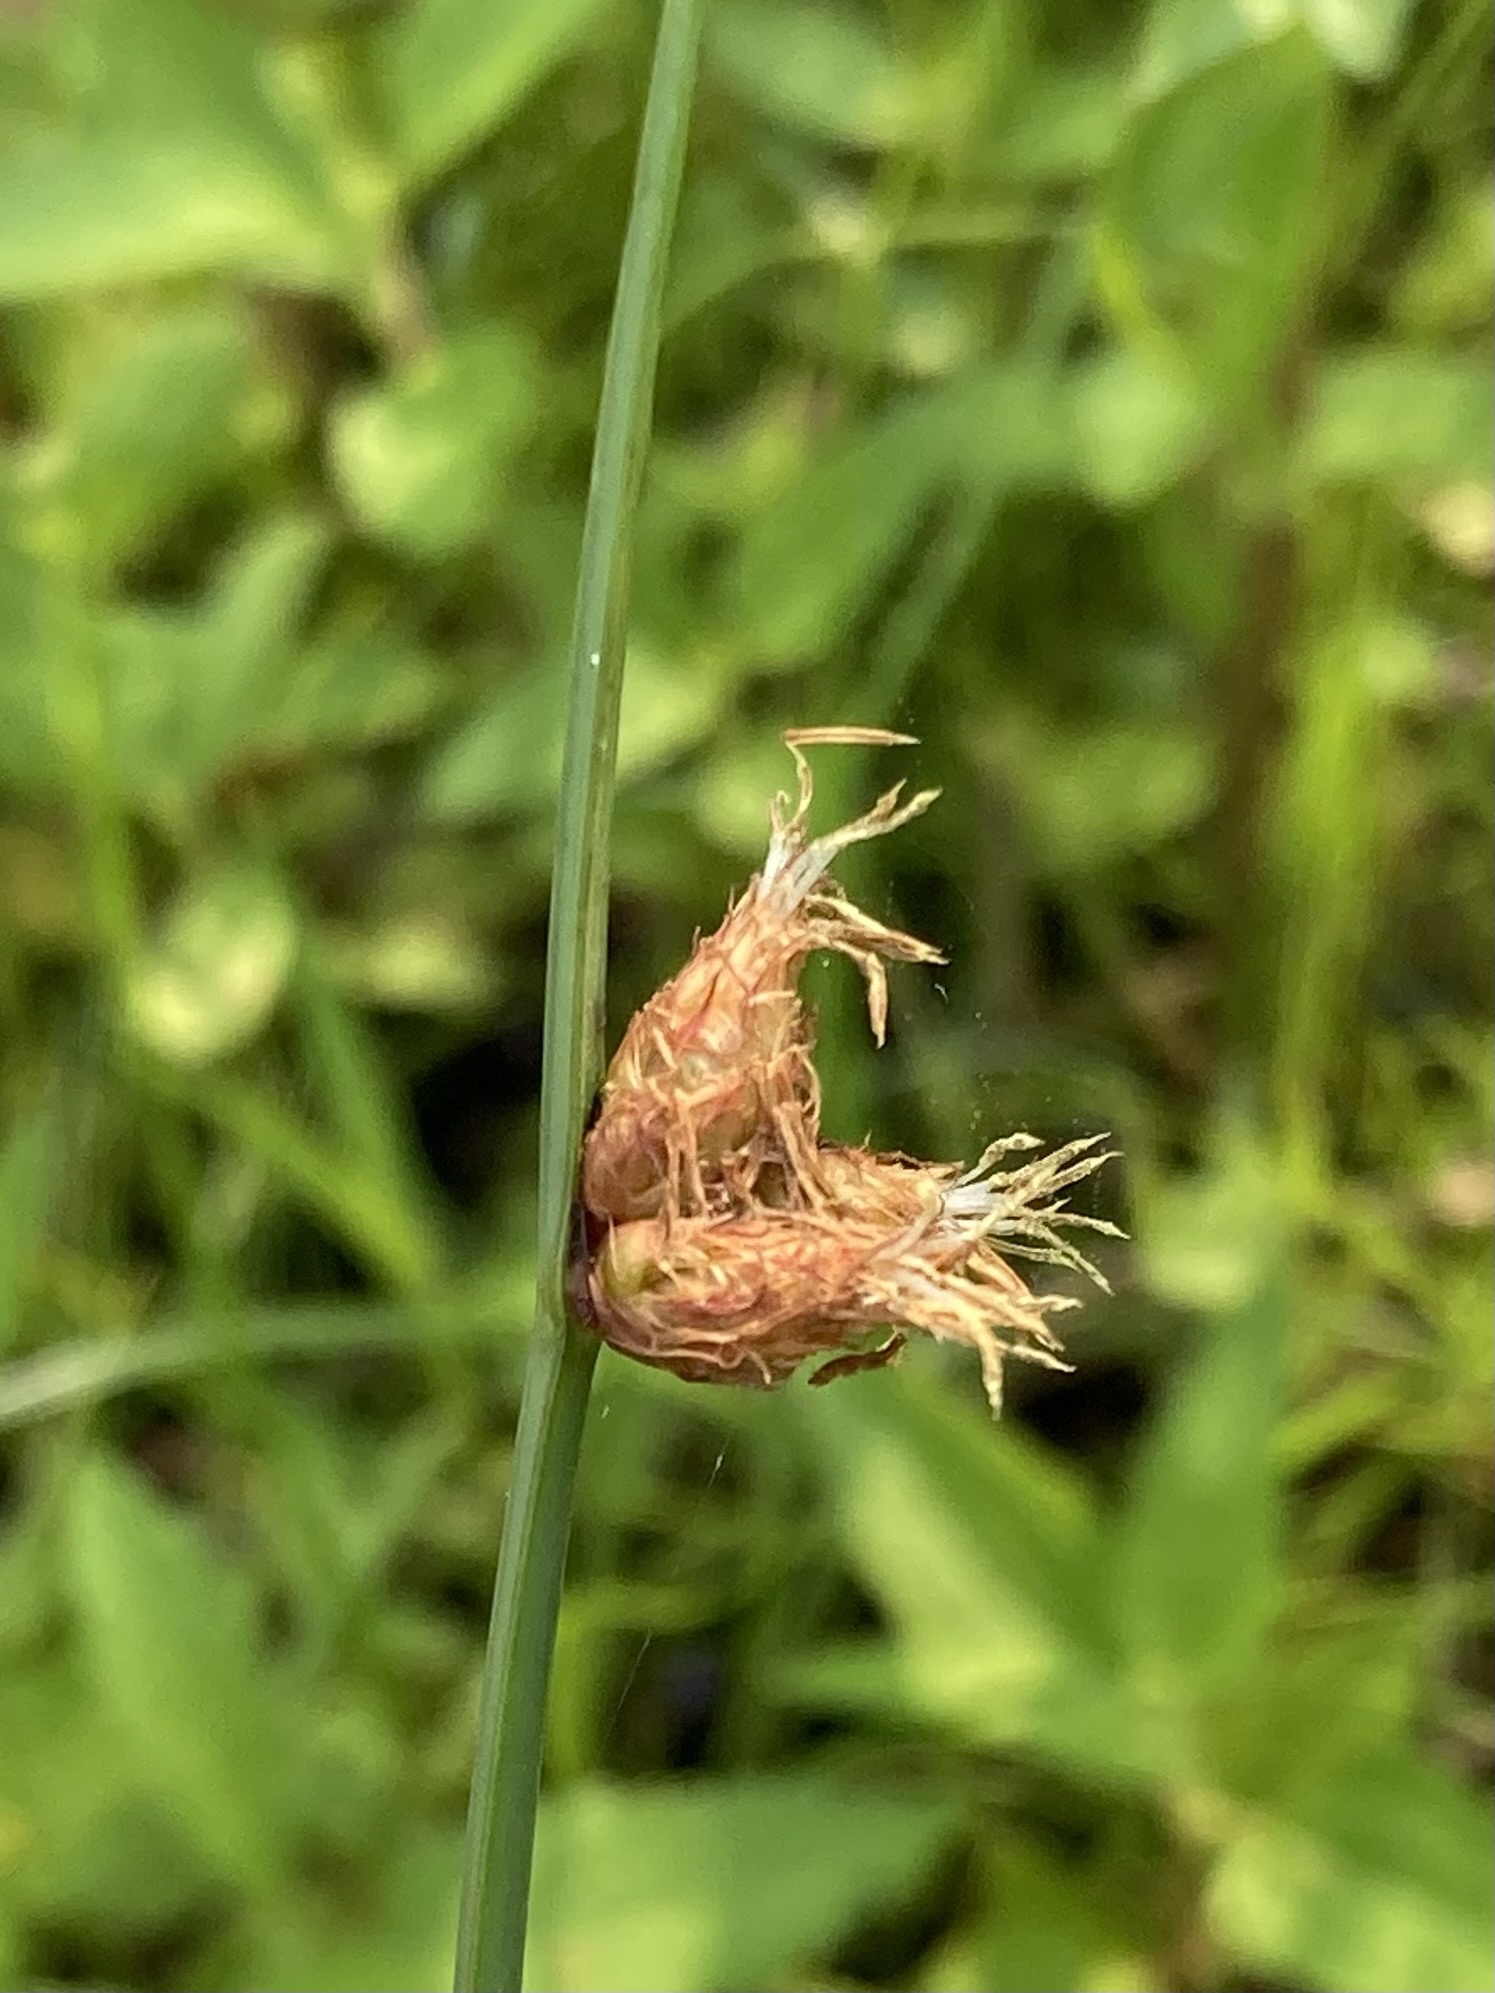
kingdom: Plantae
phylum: Tracheophyta
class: Liliopsida
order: Poales
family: Cyperaceae
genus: Schoenoplectus
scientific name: Schoenoplectus pungens
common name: Sharp club-rush
